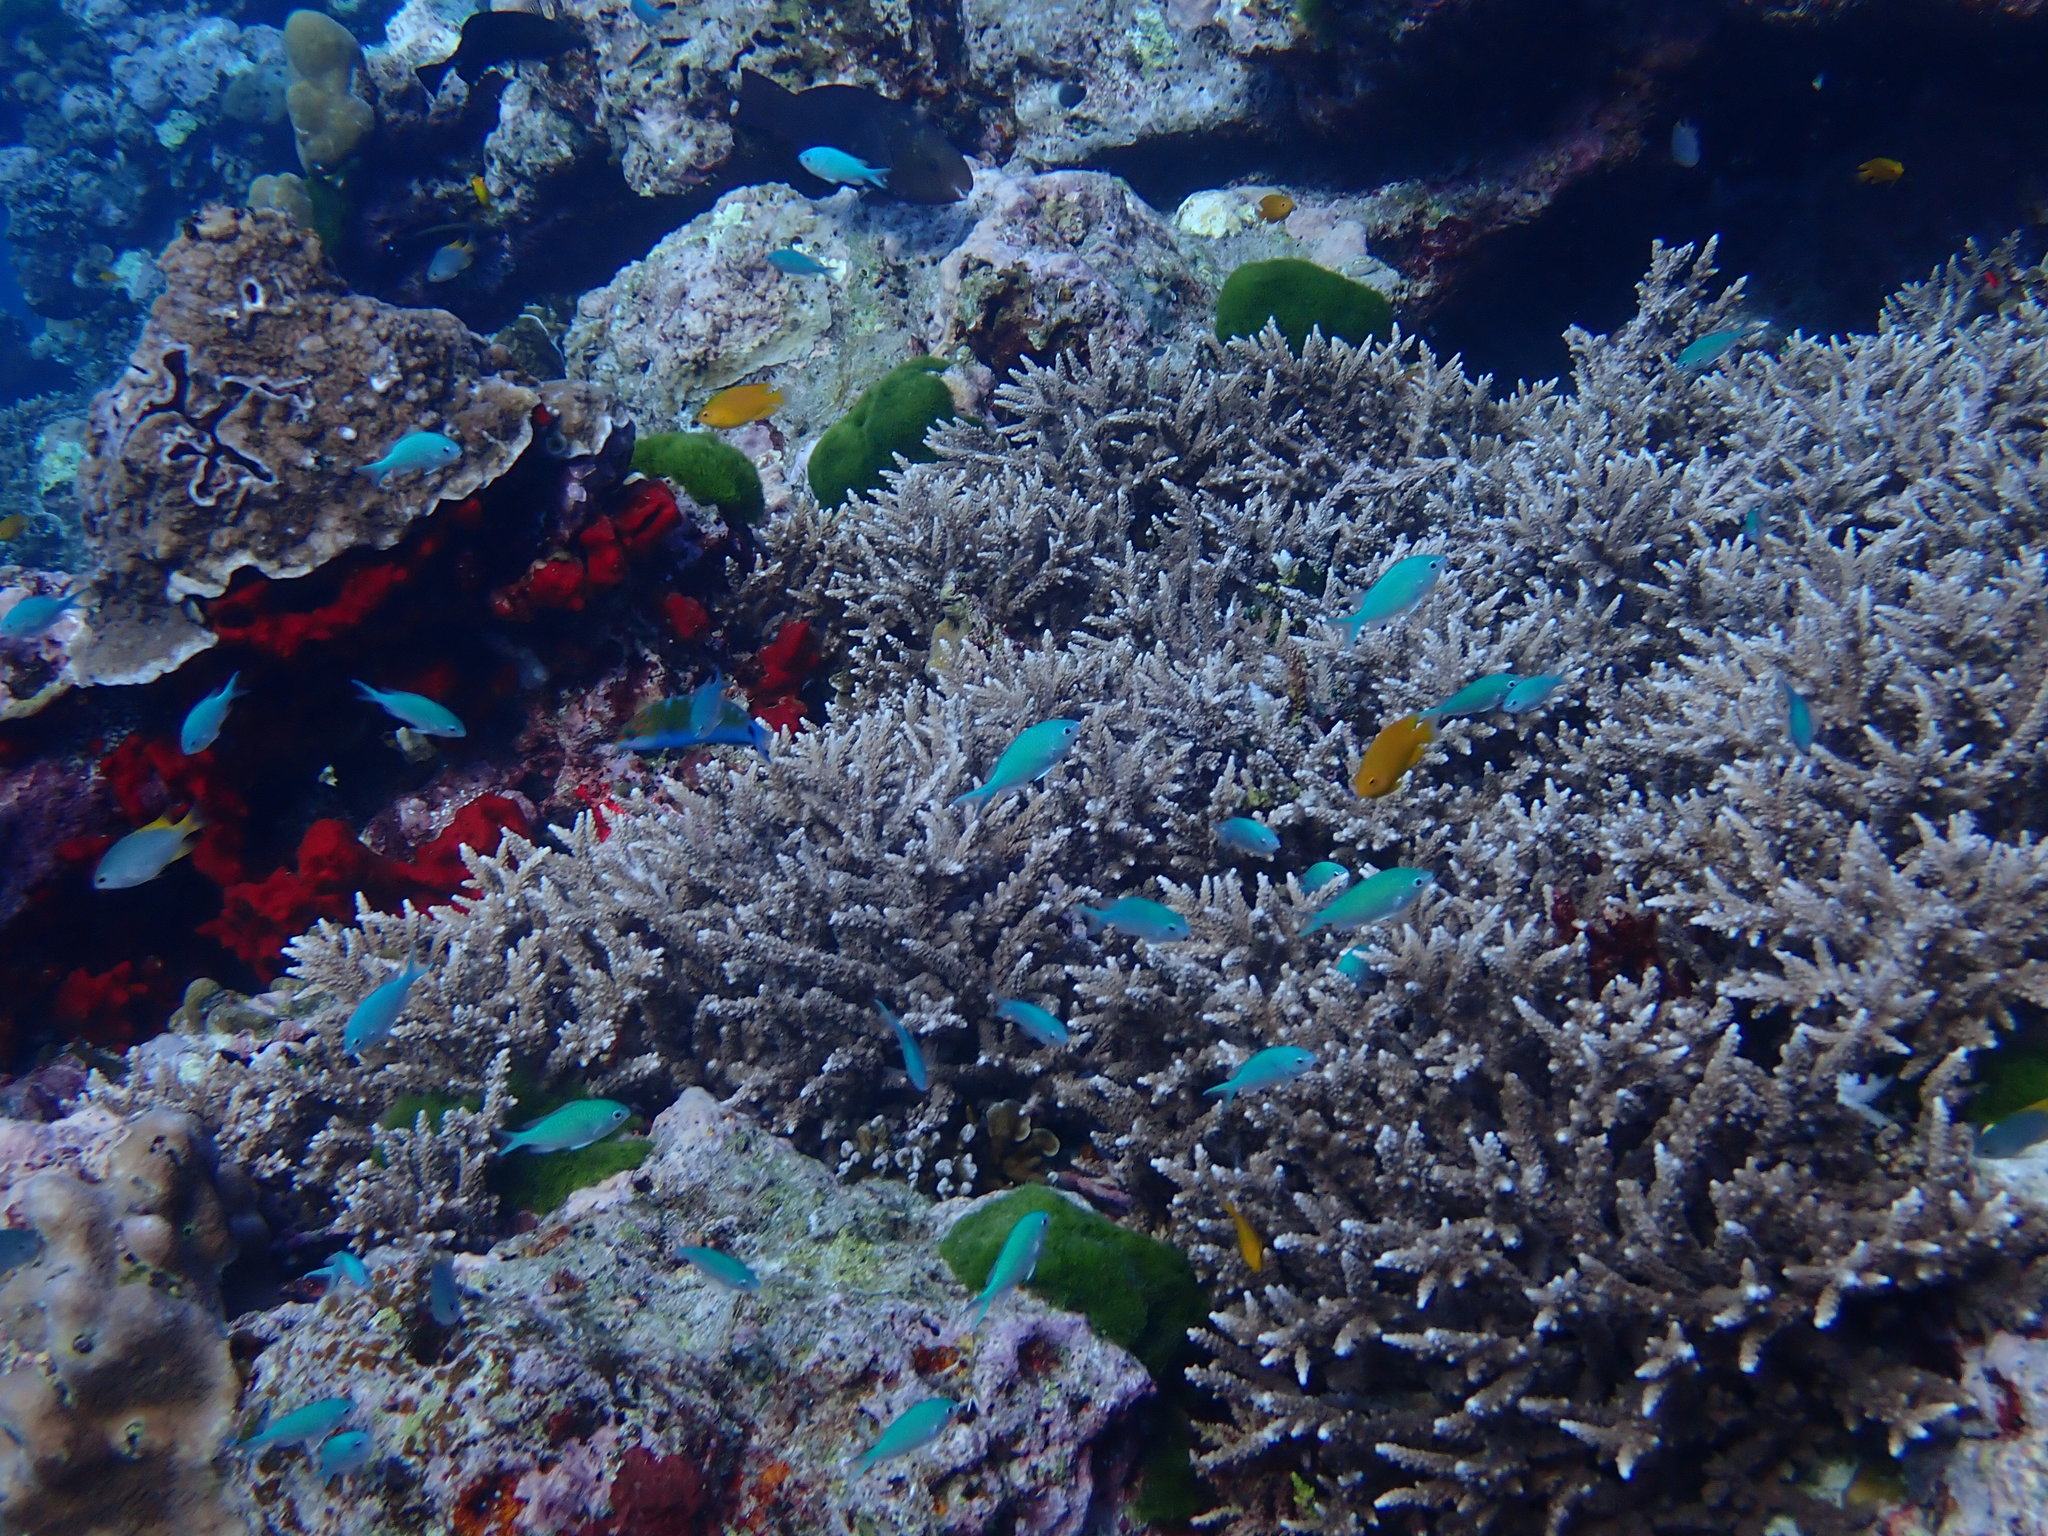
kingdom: Animalia
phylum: Chordata
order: Perciformes
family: Pomacentridae
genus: Chromis
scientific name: Chromis viridis
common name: Blue-green chromis
